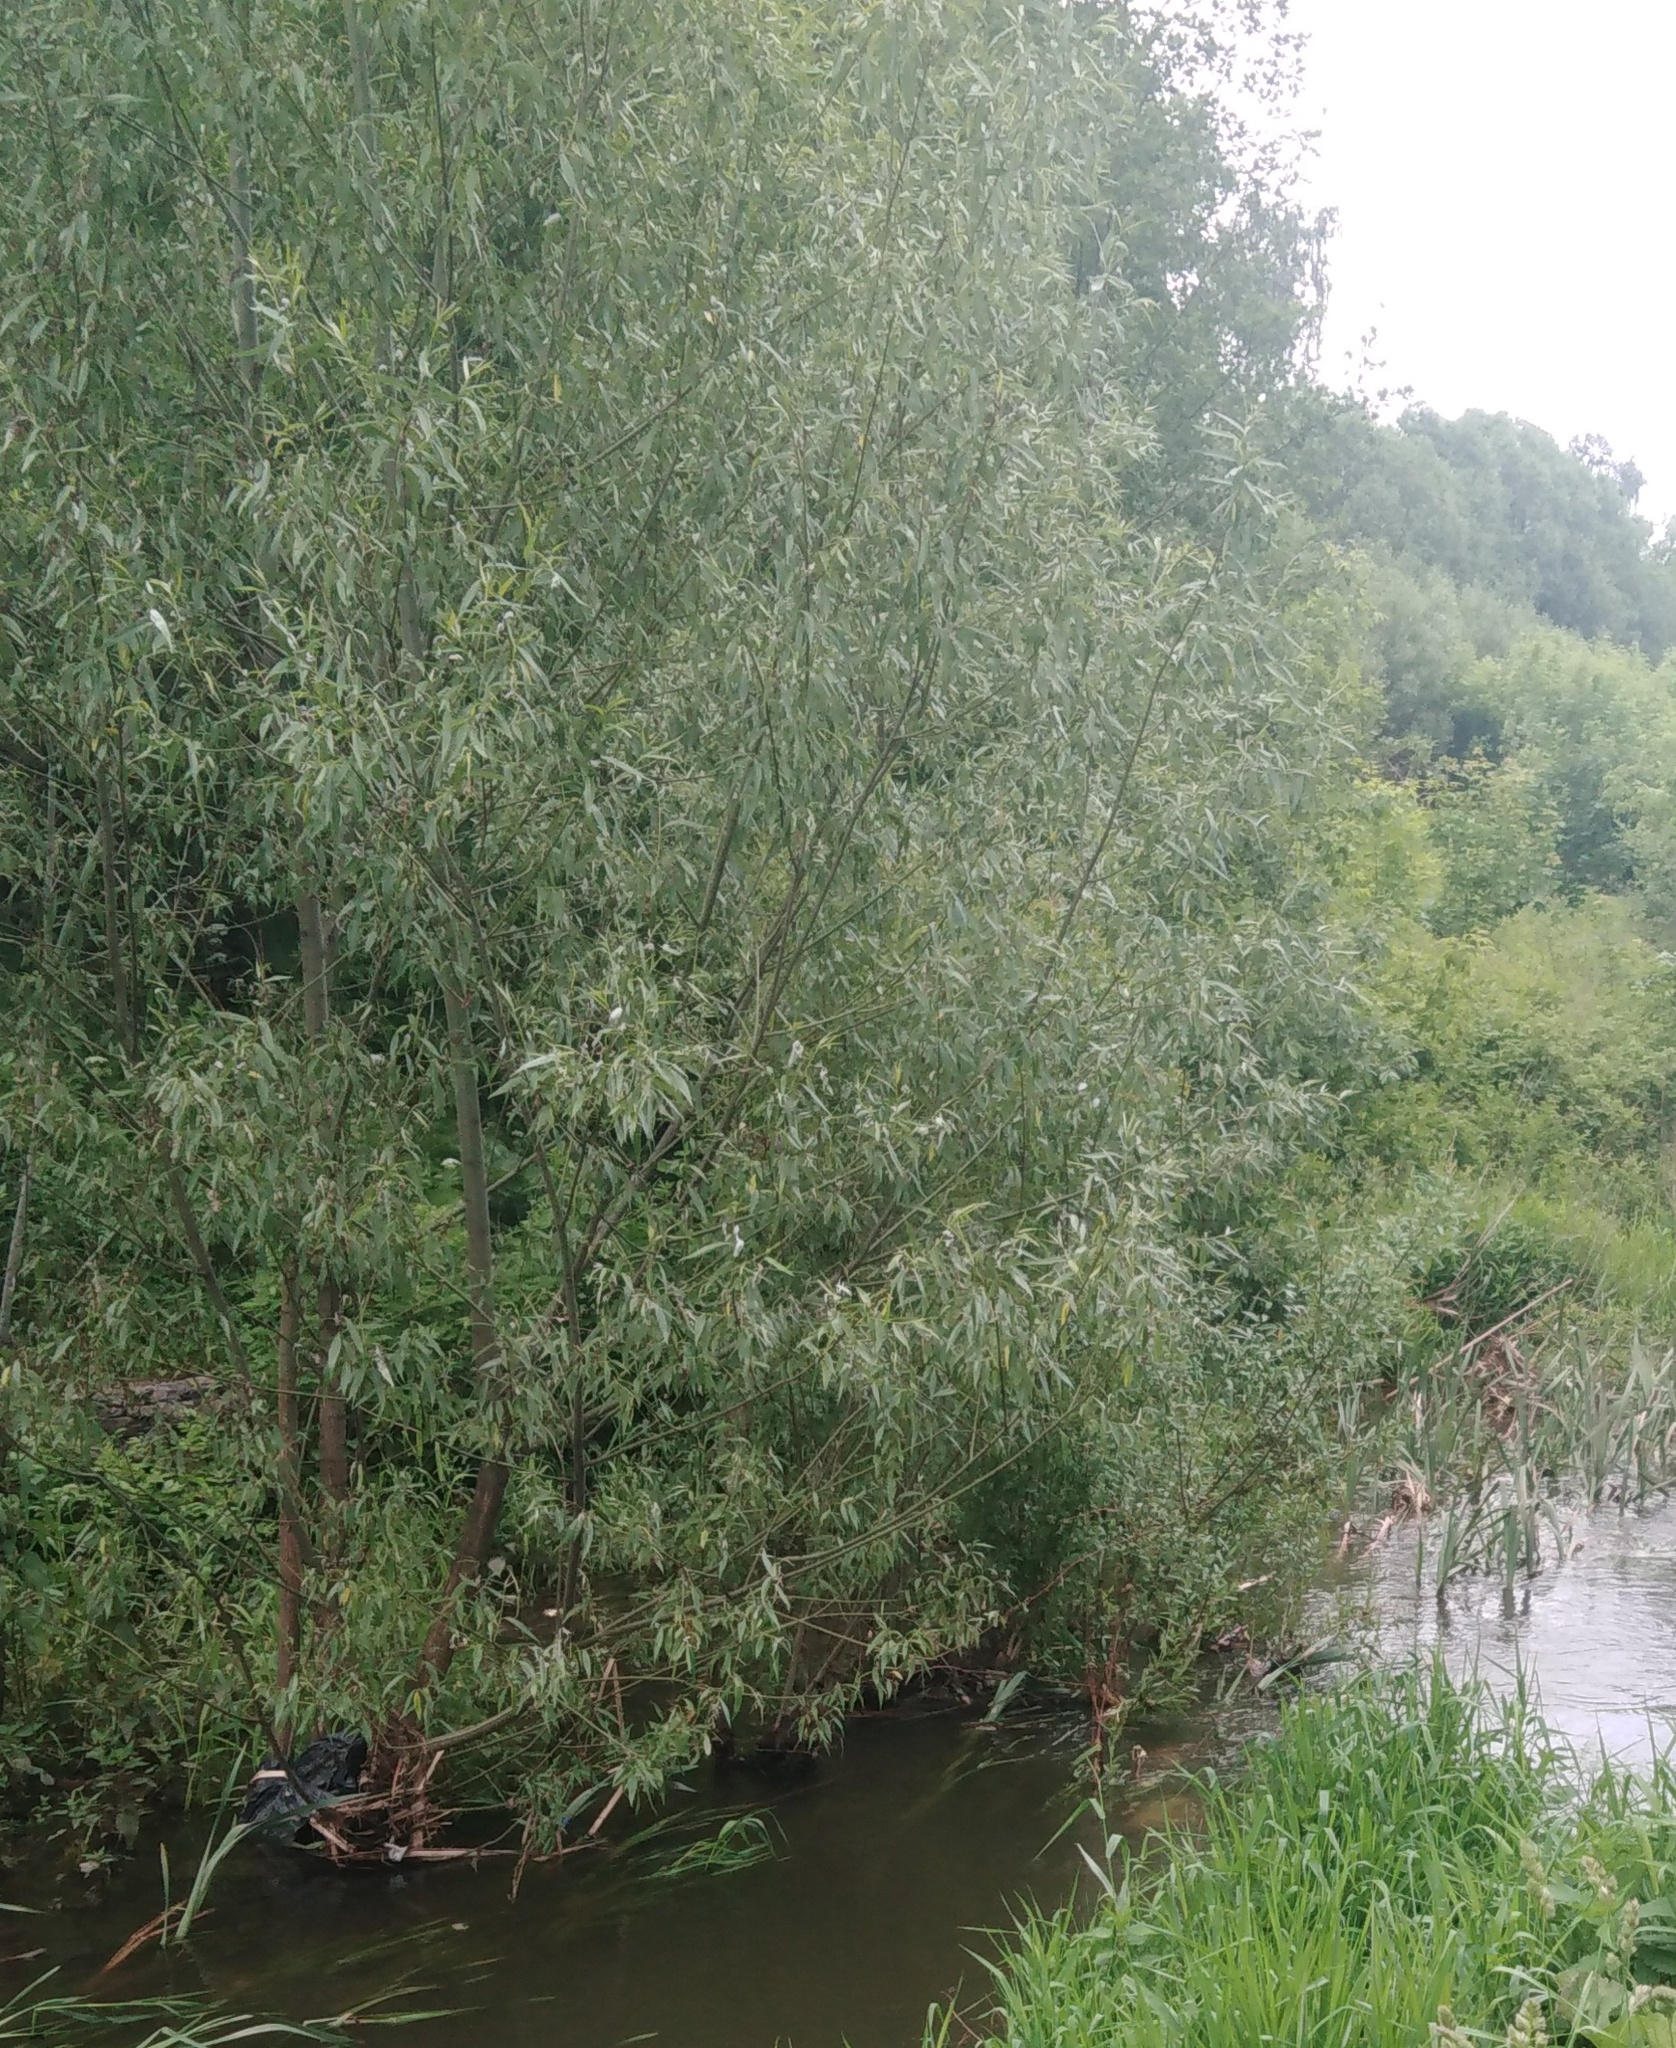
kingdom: Plantae
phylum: Tracheophyta
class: Magnoliopsida
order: Malpighiales
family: Salicaceae
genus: Salix
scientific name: Salix alba
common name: White willow
